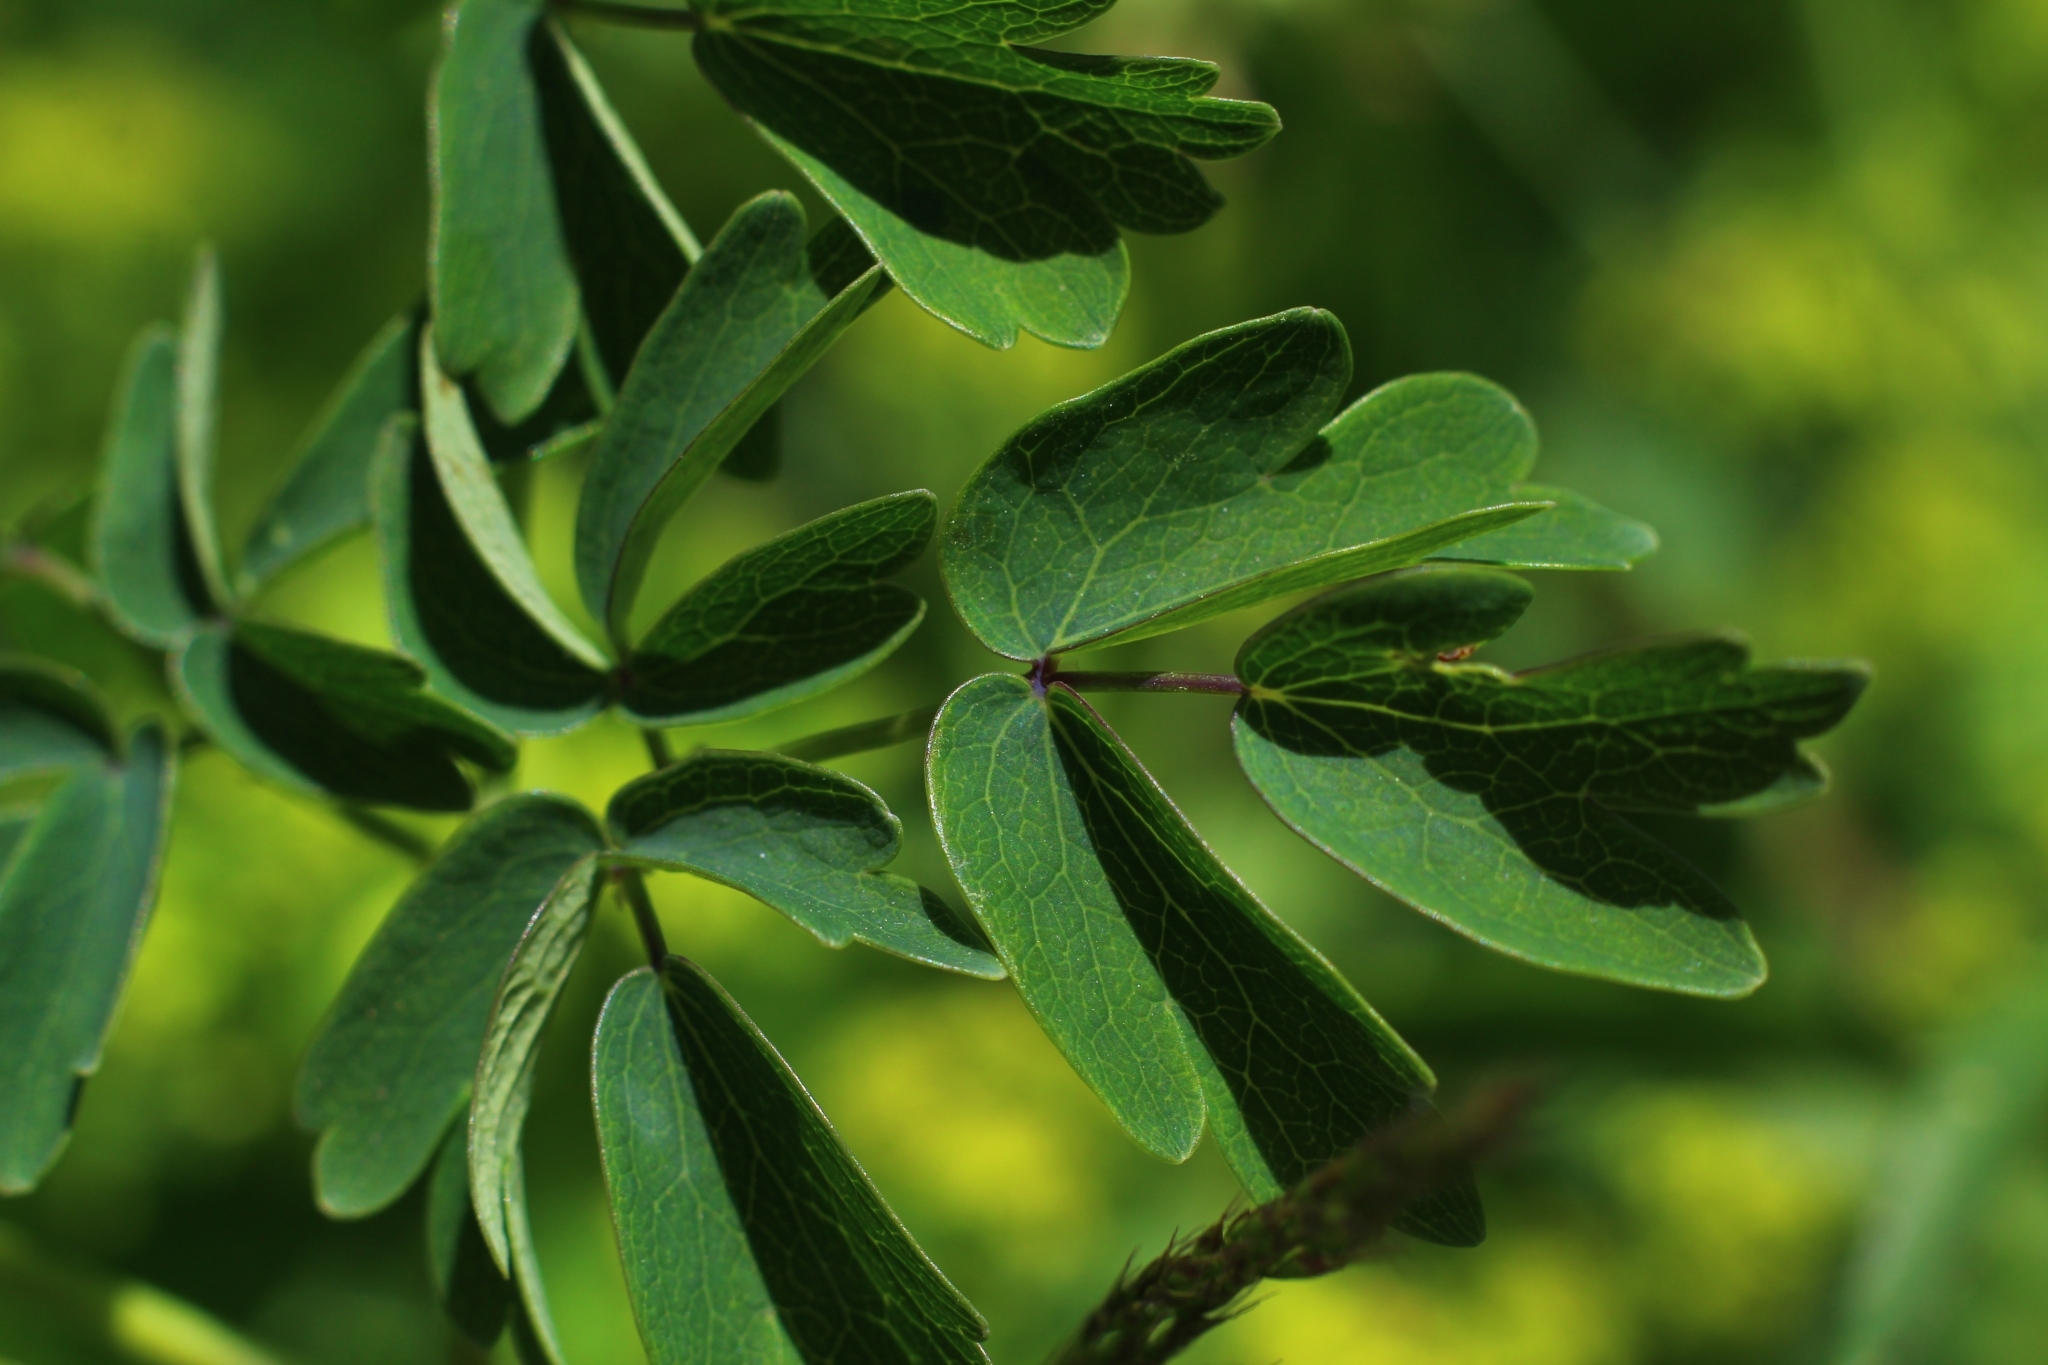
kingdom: Plantae
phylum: Tracheophyta
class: Magnoliopsida
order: Ranunculales
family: Ranunculaceae
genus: Thalictrum
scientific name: Thalictrum aquilegiifolium
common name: French meadow-rue
